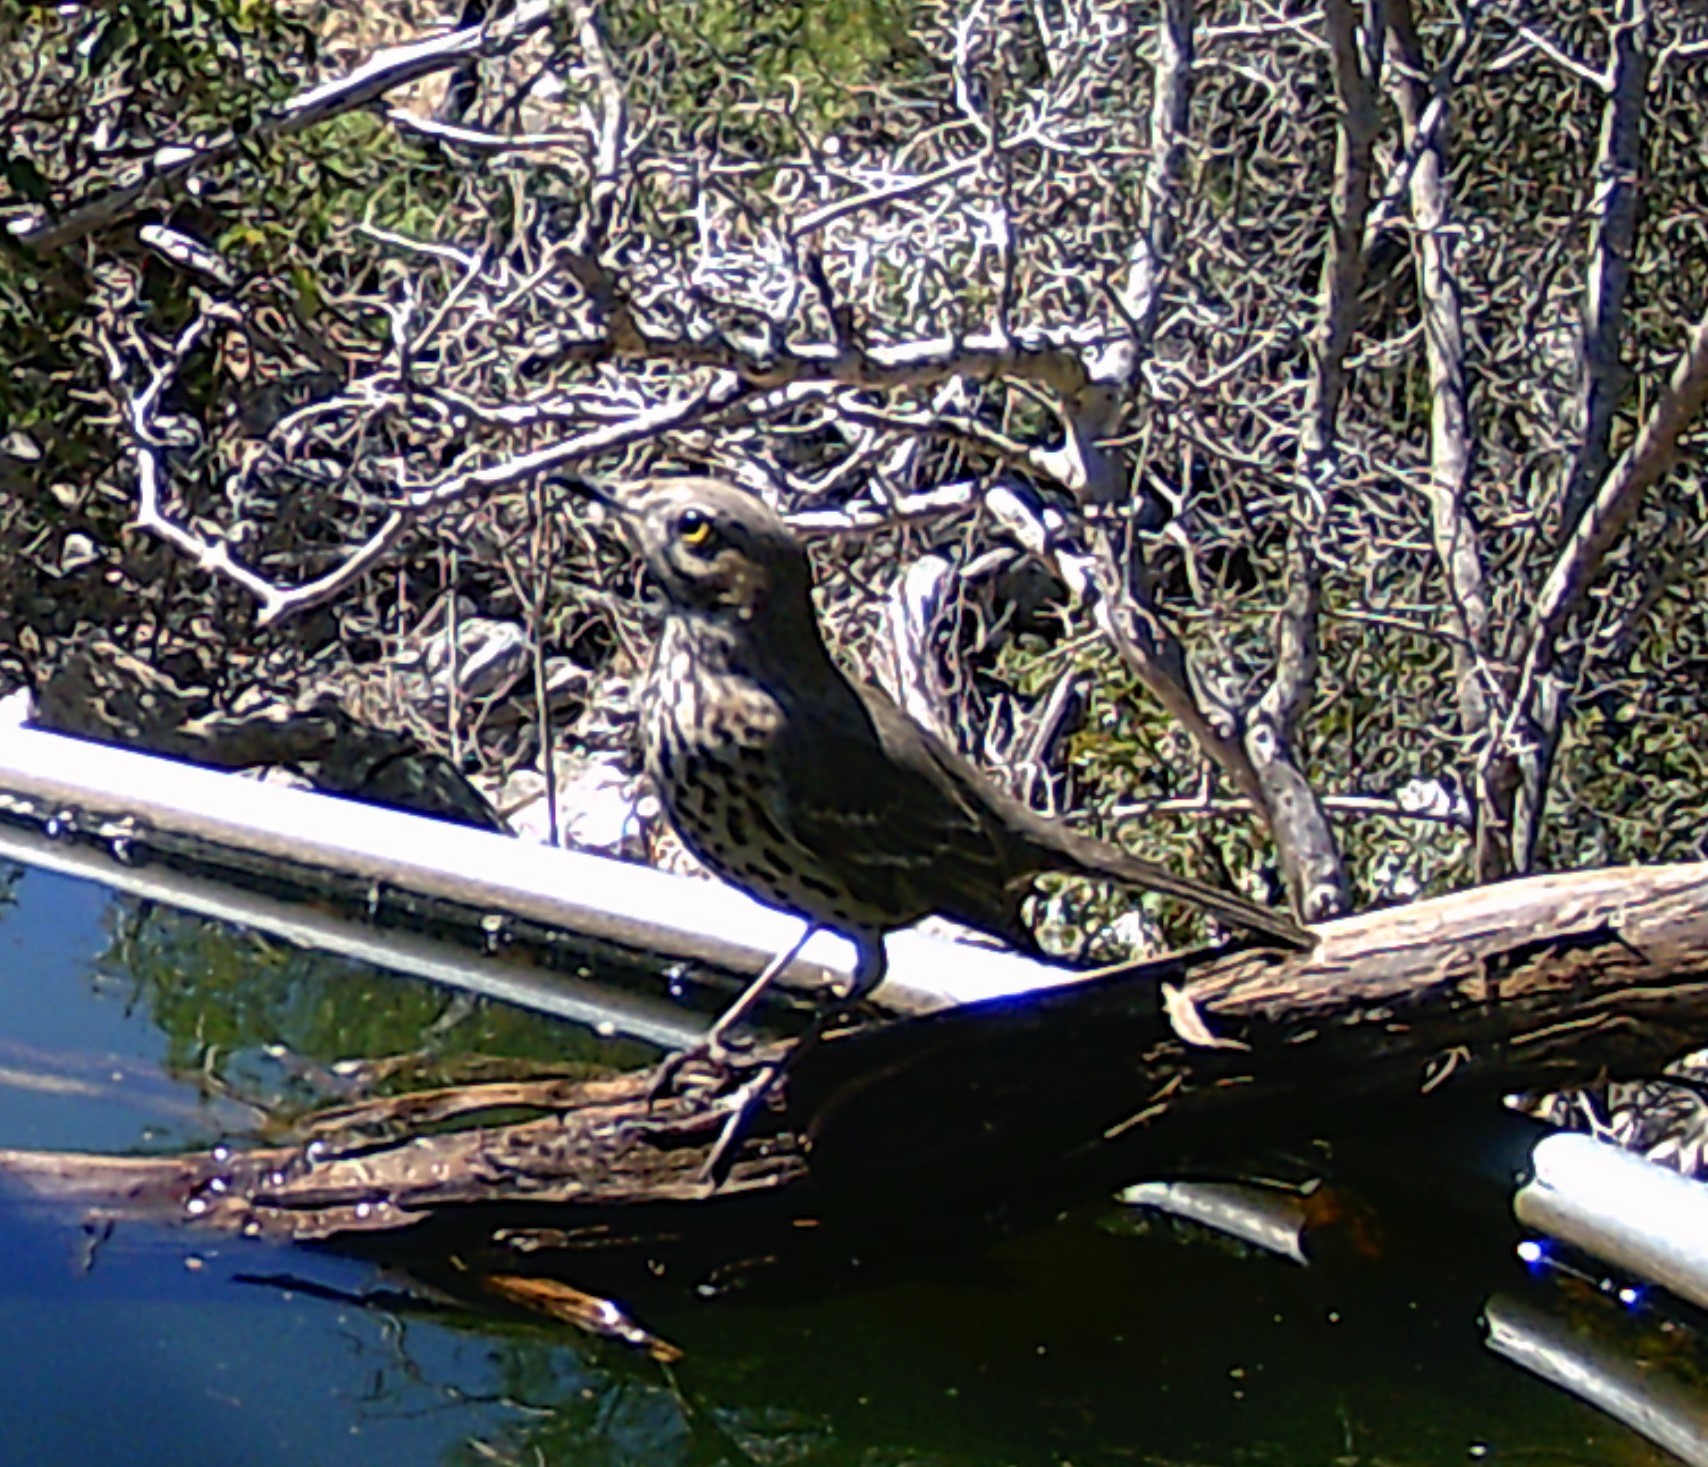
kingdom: Animalia
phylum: Chordata
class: Aves
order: Passeriformes
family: Mimidae
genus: Oreoscoptes
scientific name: Oreoscoptes montanus
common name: Sage thrasher
